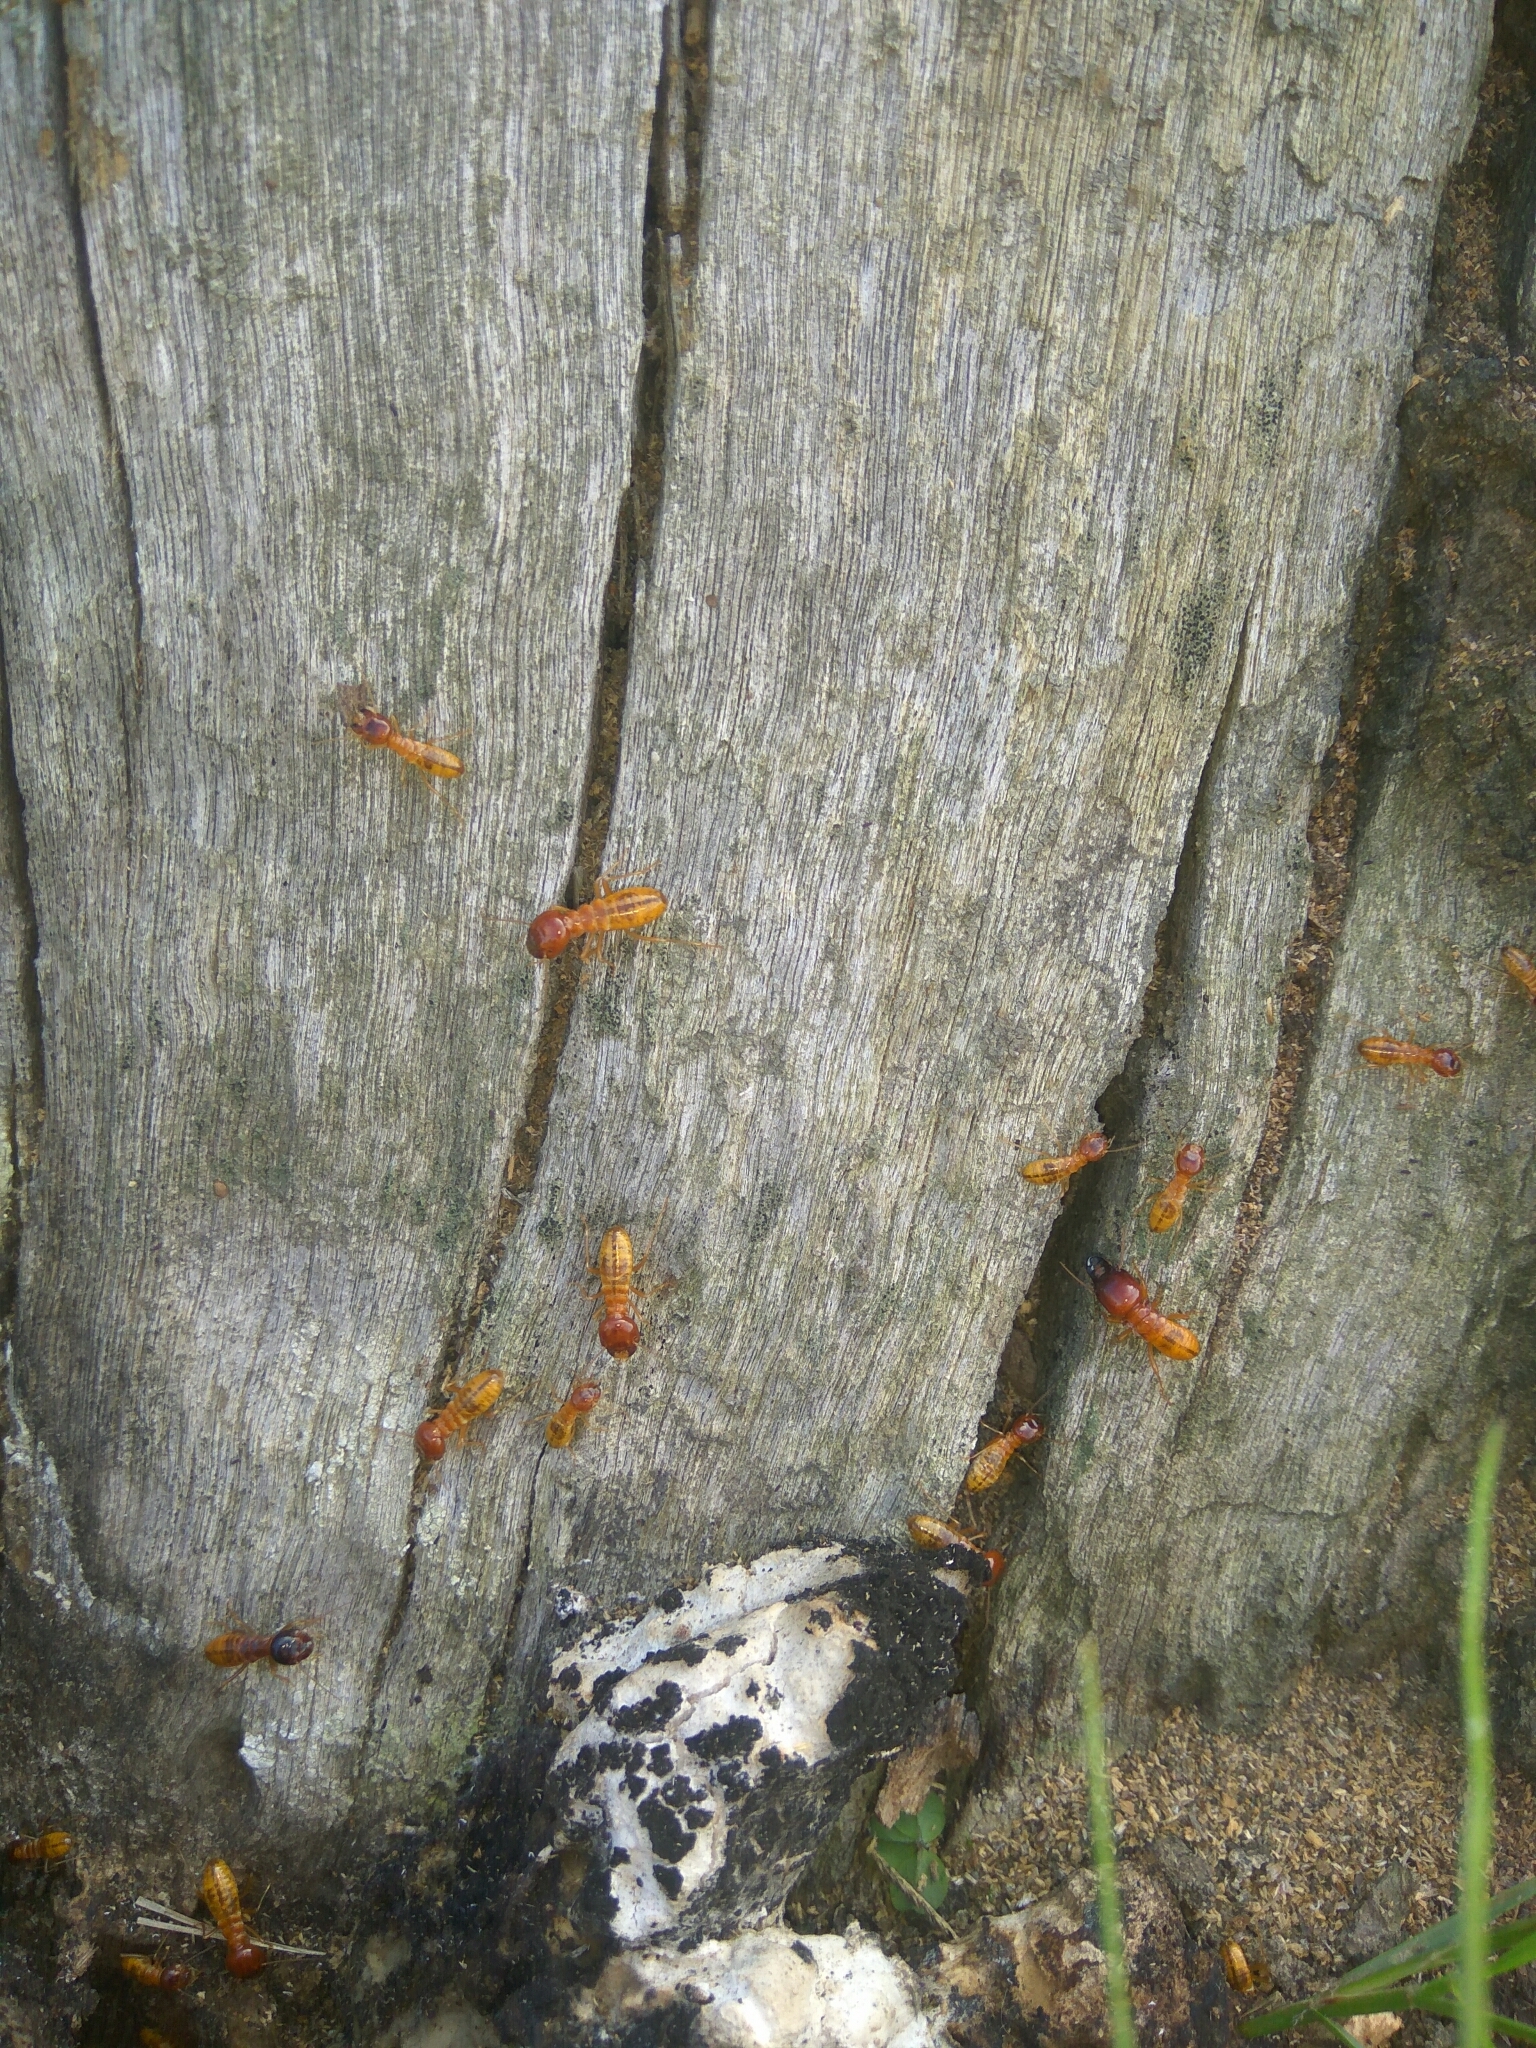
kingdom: Animalia
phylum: Arthropoda
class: Insecta
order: Blattodea
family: Hodotermitidae
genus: Microhodotermes
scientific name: Microhodotermes viator
